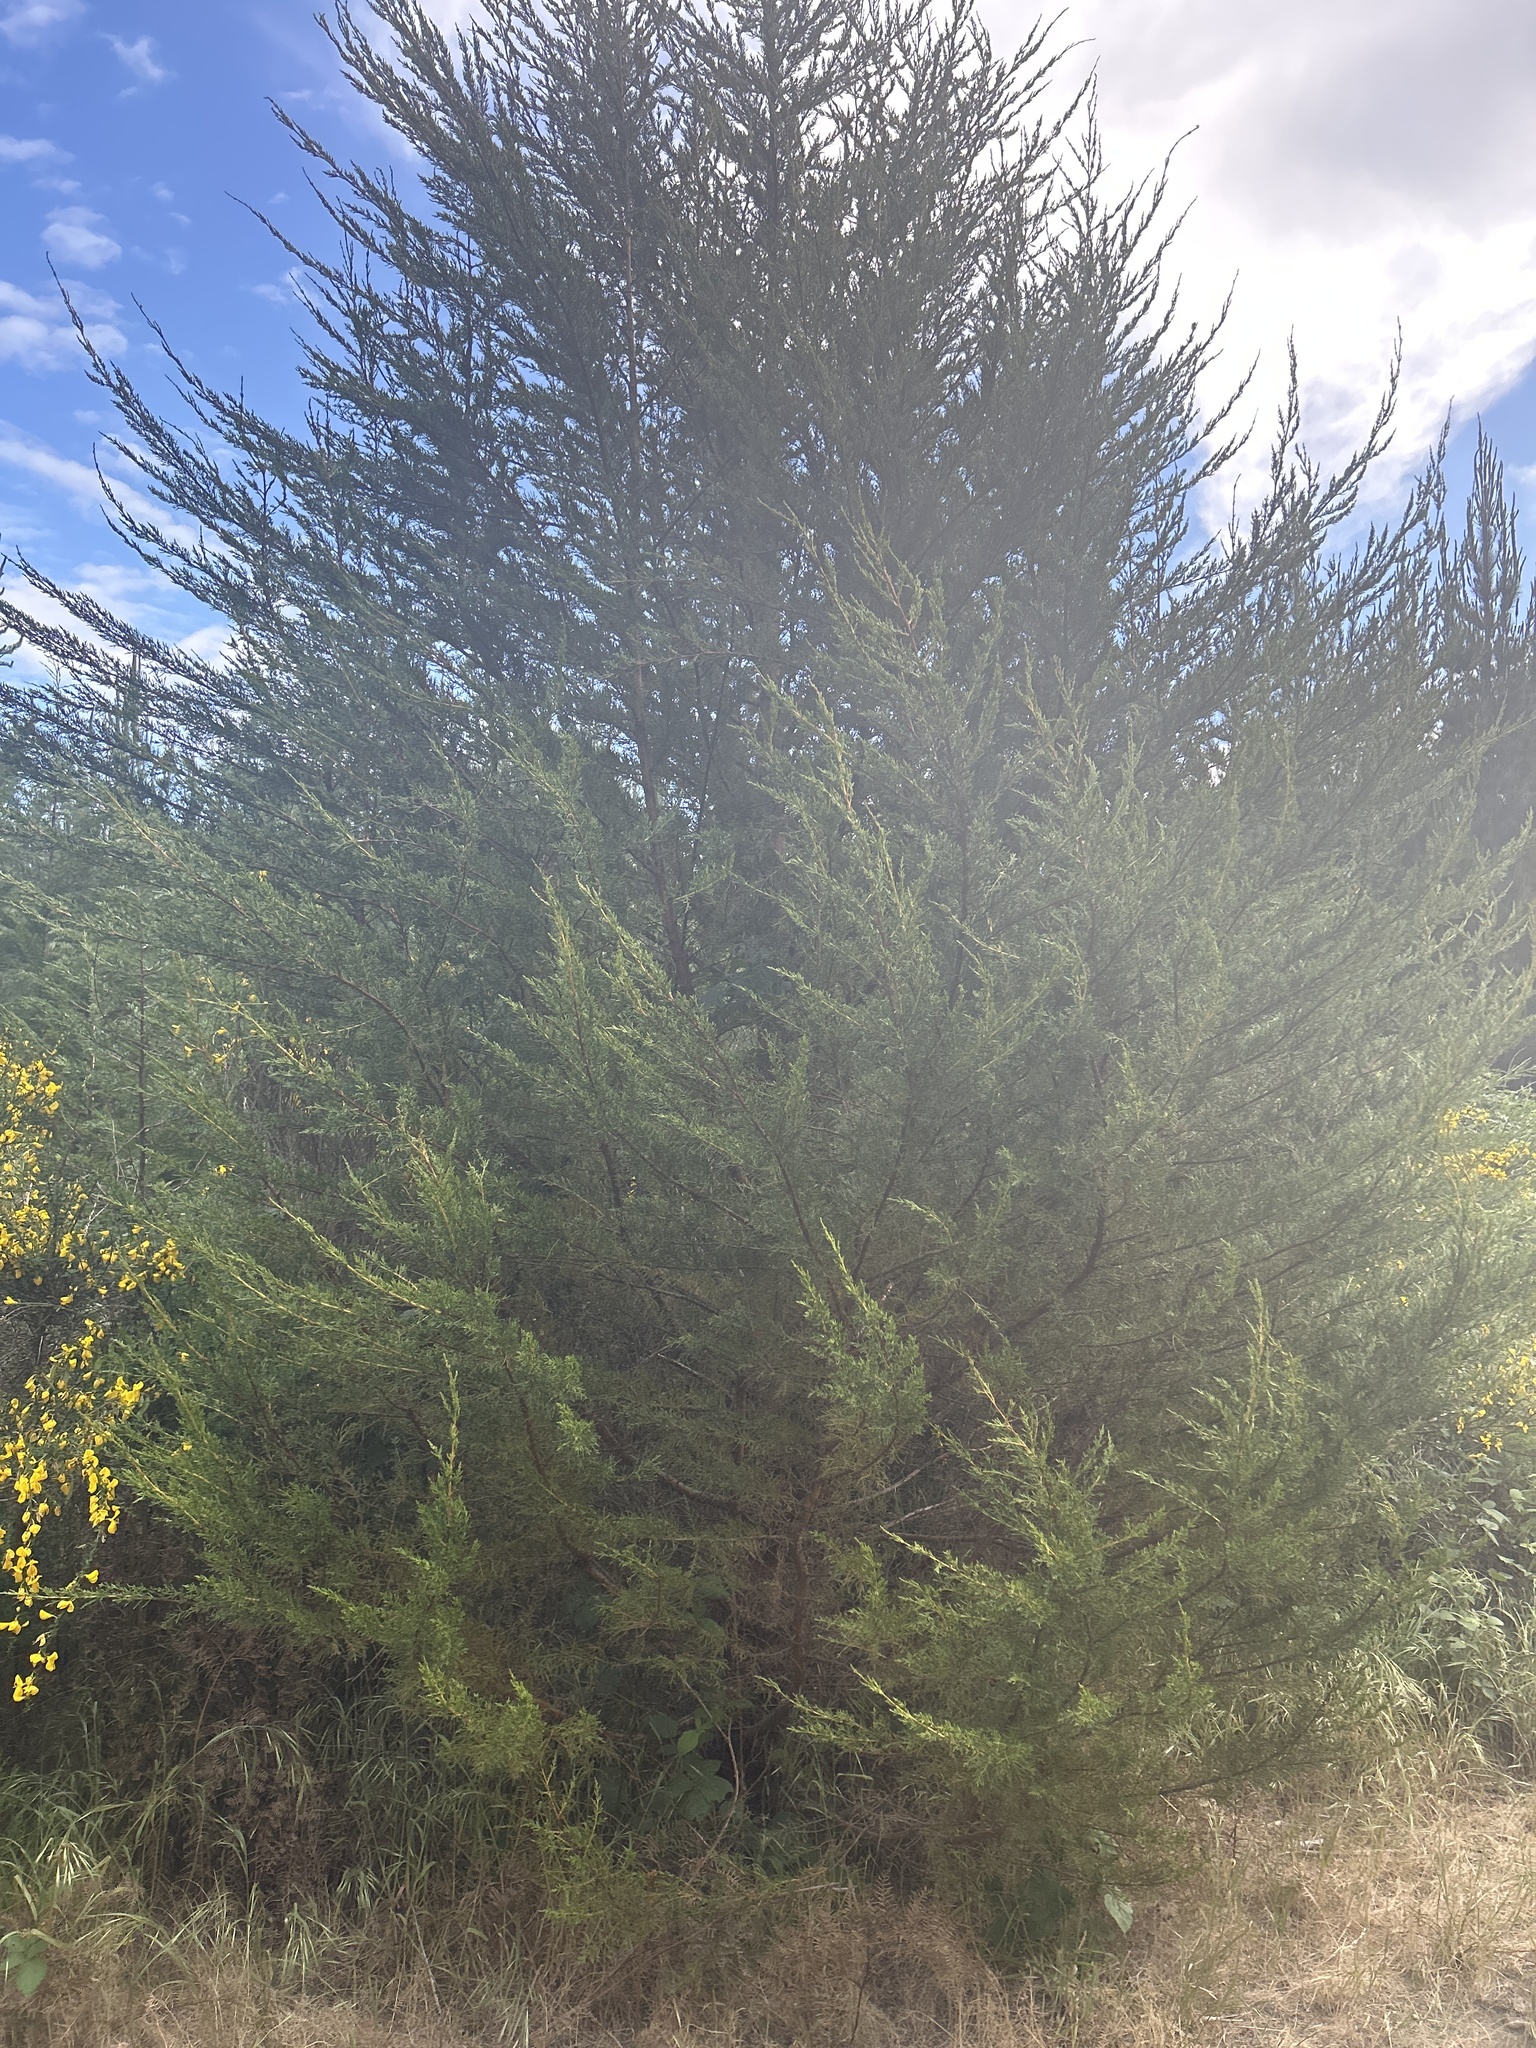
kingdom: Plantae
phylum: Tracheophyta
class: Pinopsida
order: Pinales
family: Cupressaceae
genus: Cupressus
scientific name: Cupressus macrocarpa
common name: Monterey cypress
